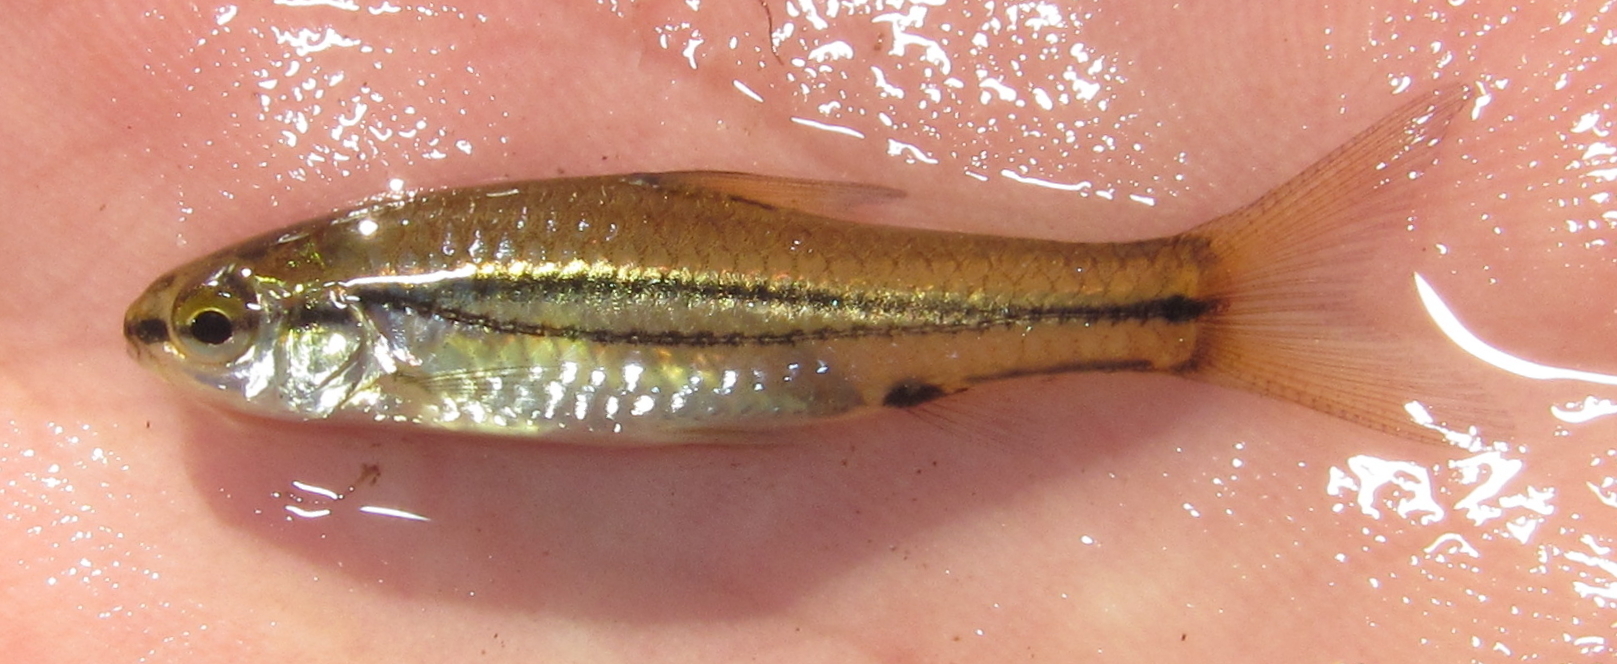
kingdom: Animalia
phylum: Chordata
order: Cypriniformes
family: Cyprinidae
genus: Enteromius
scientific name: Enteromius bifrenatus
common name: Hyphen barb
